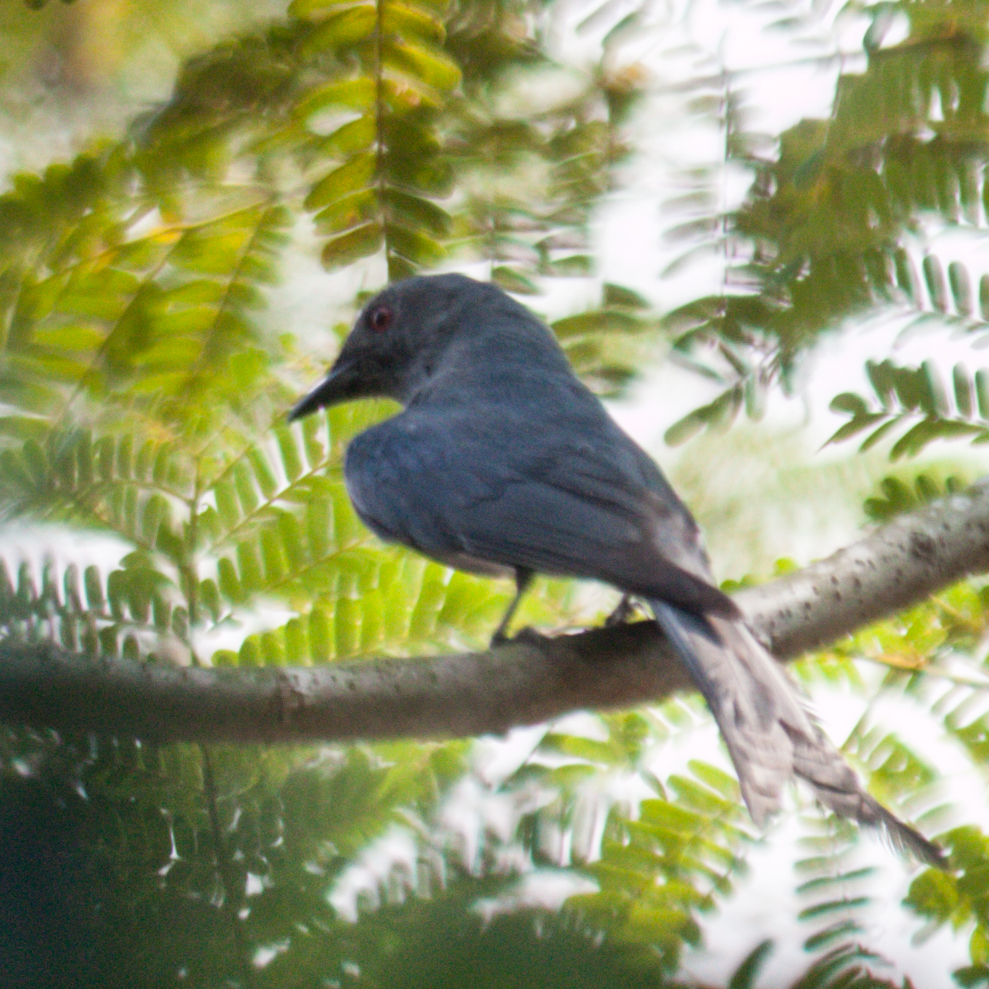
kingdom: Animalia
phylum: Chordata
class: Aves
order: Passeriformes
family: Dicruridae
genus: Dicrurus
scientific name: Dicrurus leucophaeus
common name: Ashy drongo
